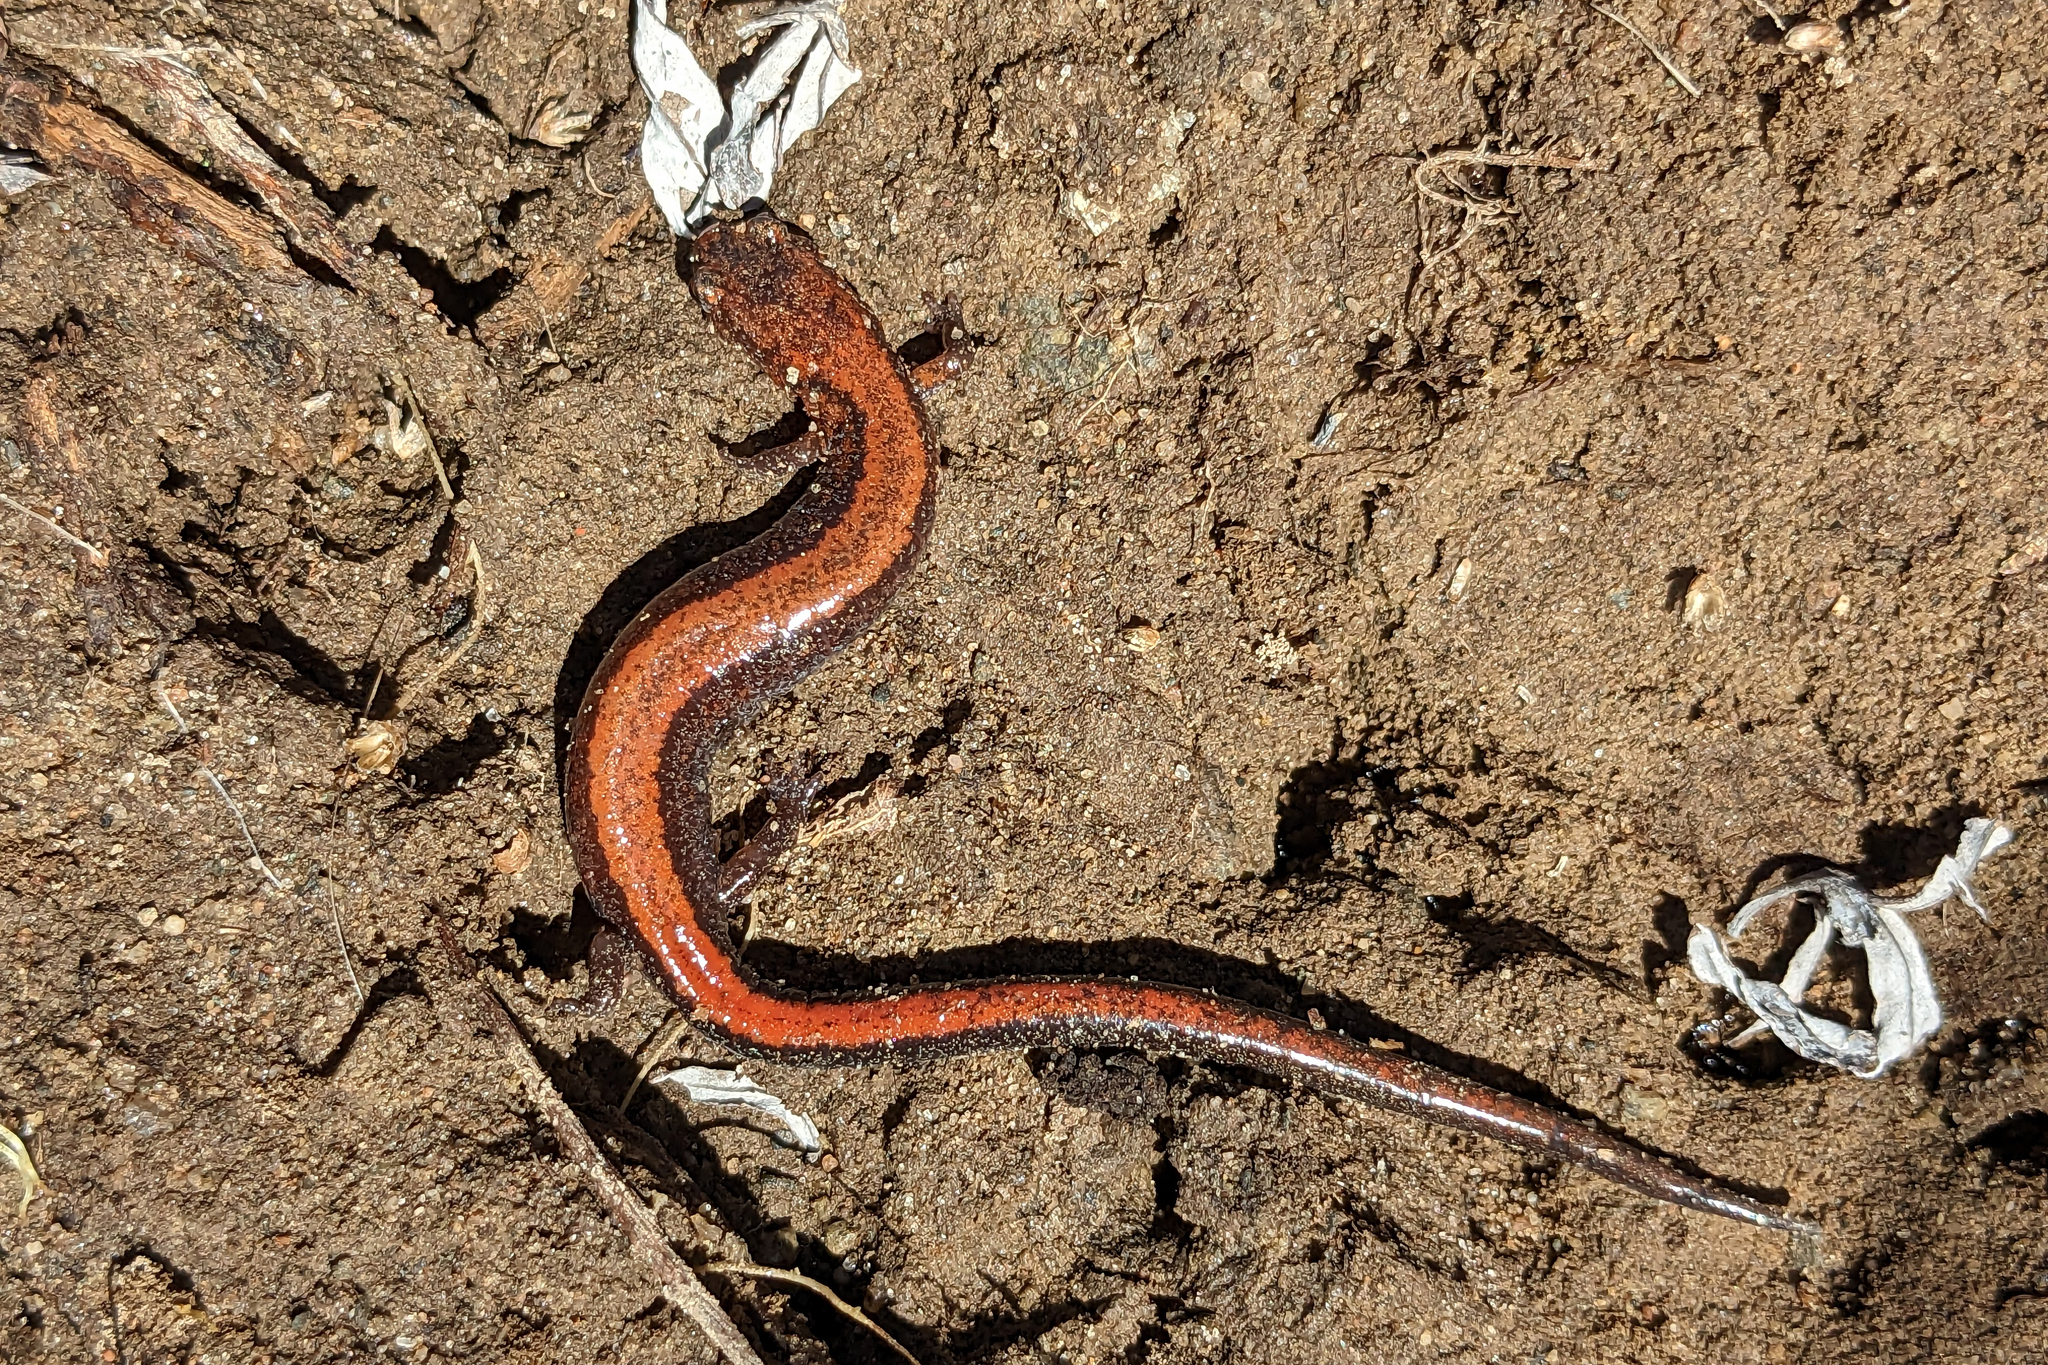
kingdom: Animalia
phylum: Chordata
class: Amphibia
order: Caudata
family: Plethodontidae
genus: Plethodon
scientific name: Plethodon cinereus
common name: Redback salamander
